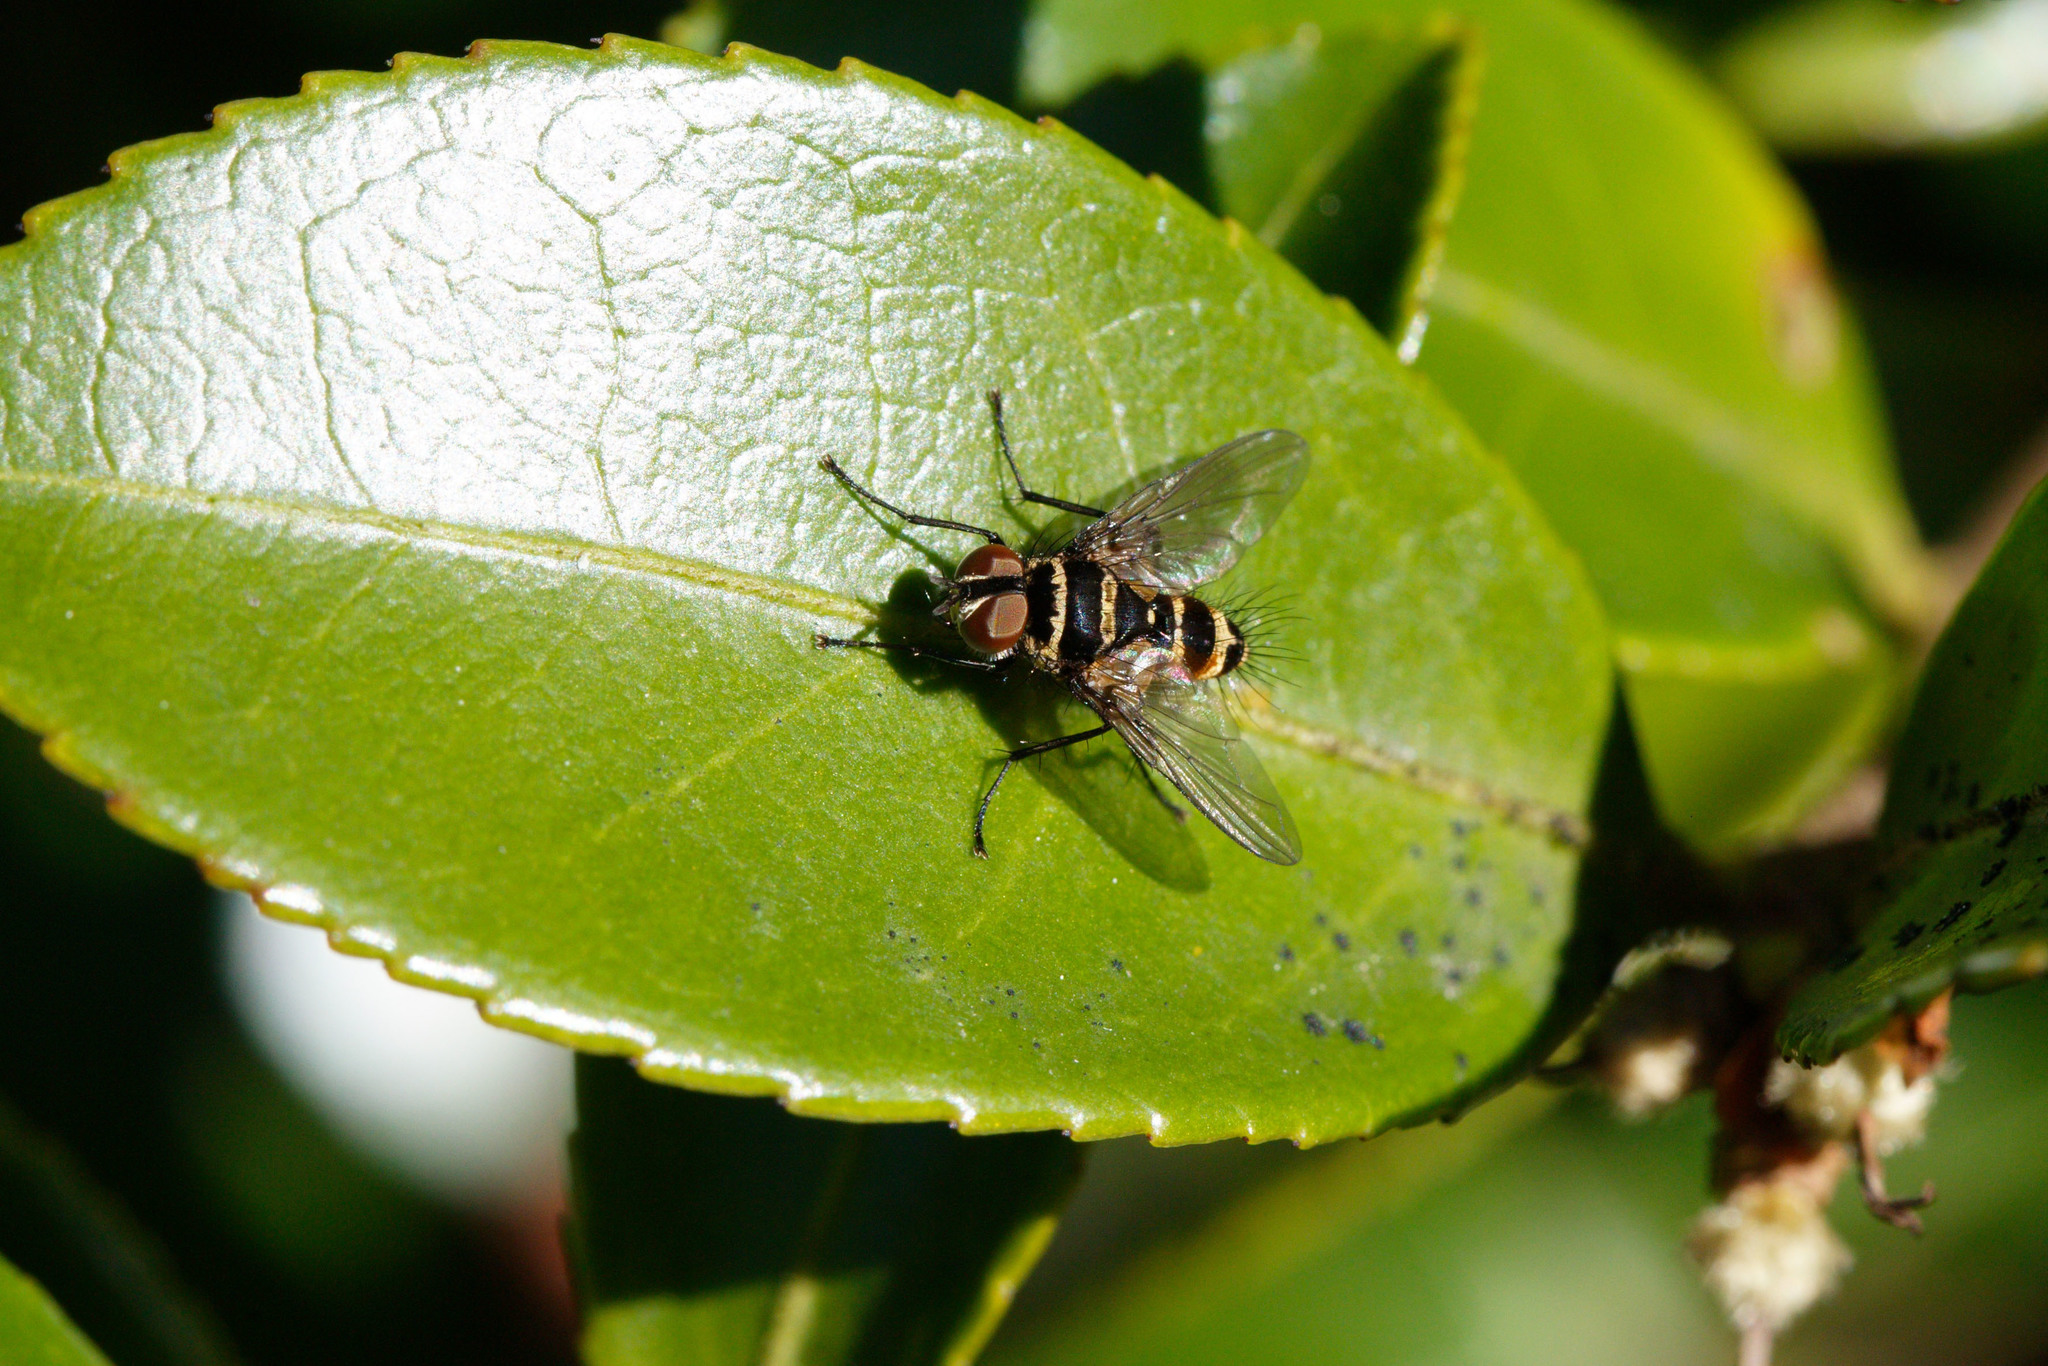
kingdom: Animalia
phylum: Arthropoda
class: Insecta
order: Diptera
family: Tachinidae
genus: Trigonospila
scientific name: Trigonospila brevifacies
